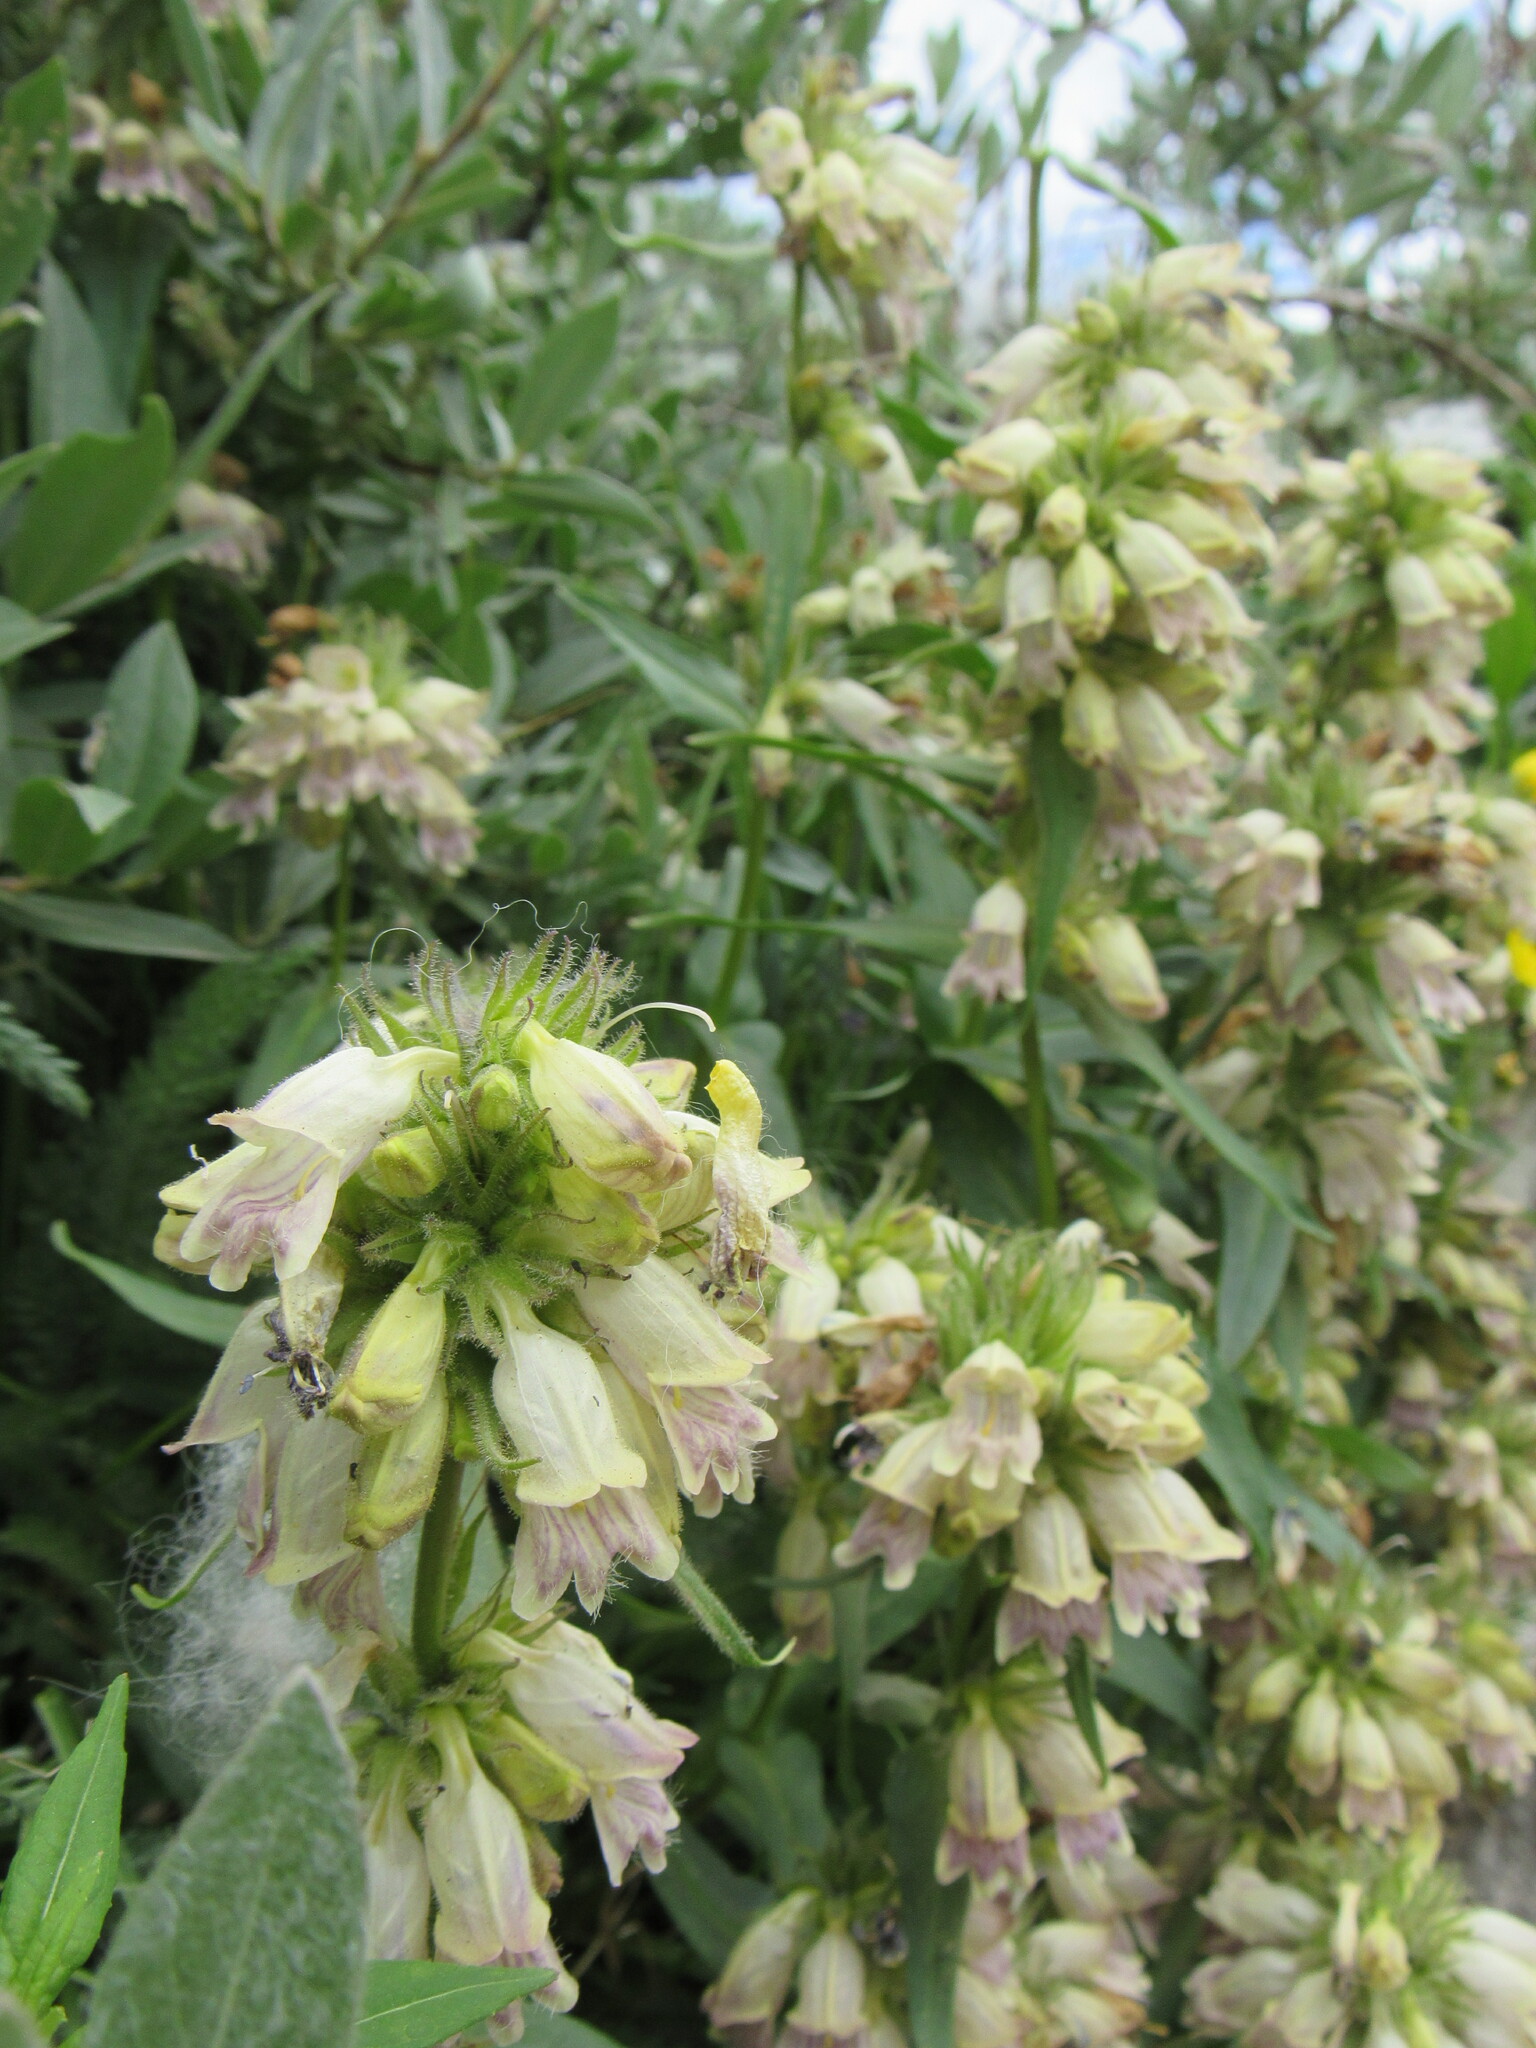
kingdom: Plantae
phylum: Tracheophyta
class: Magnoliopsida
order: Lamiales
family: Plantaginaceae
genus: Penstemon
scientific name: Penstemon whippleanus
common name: Whipple's penstemon
